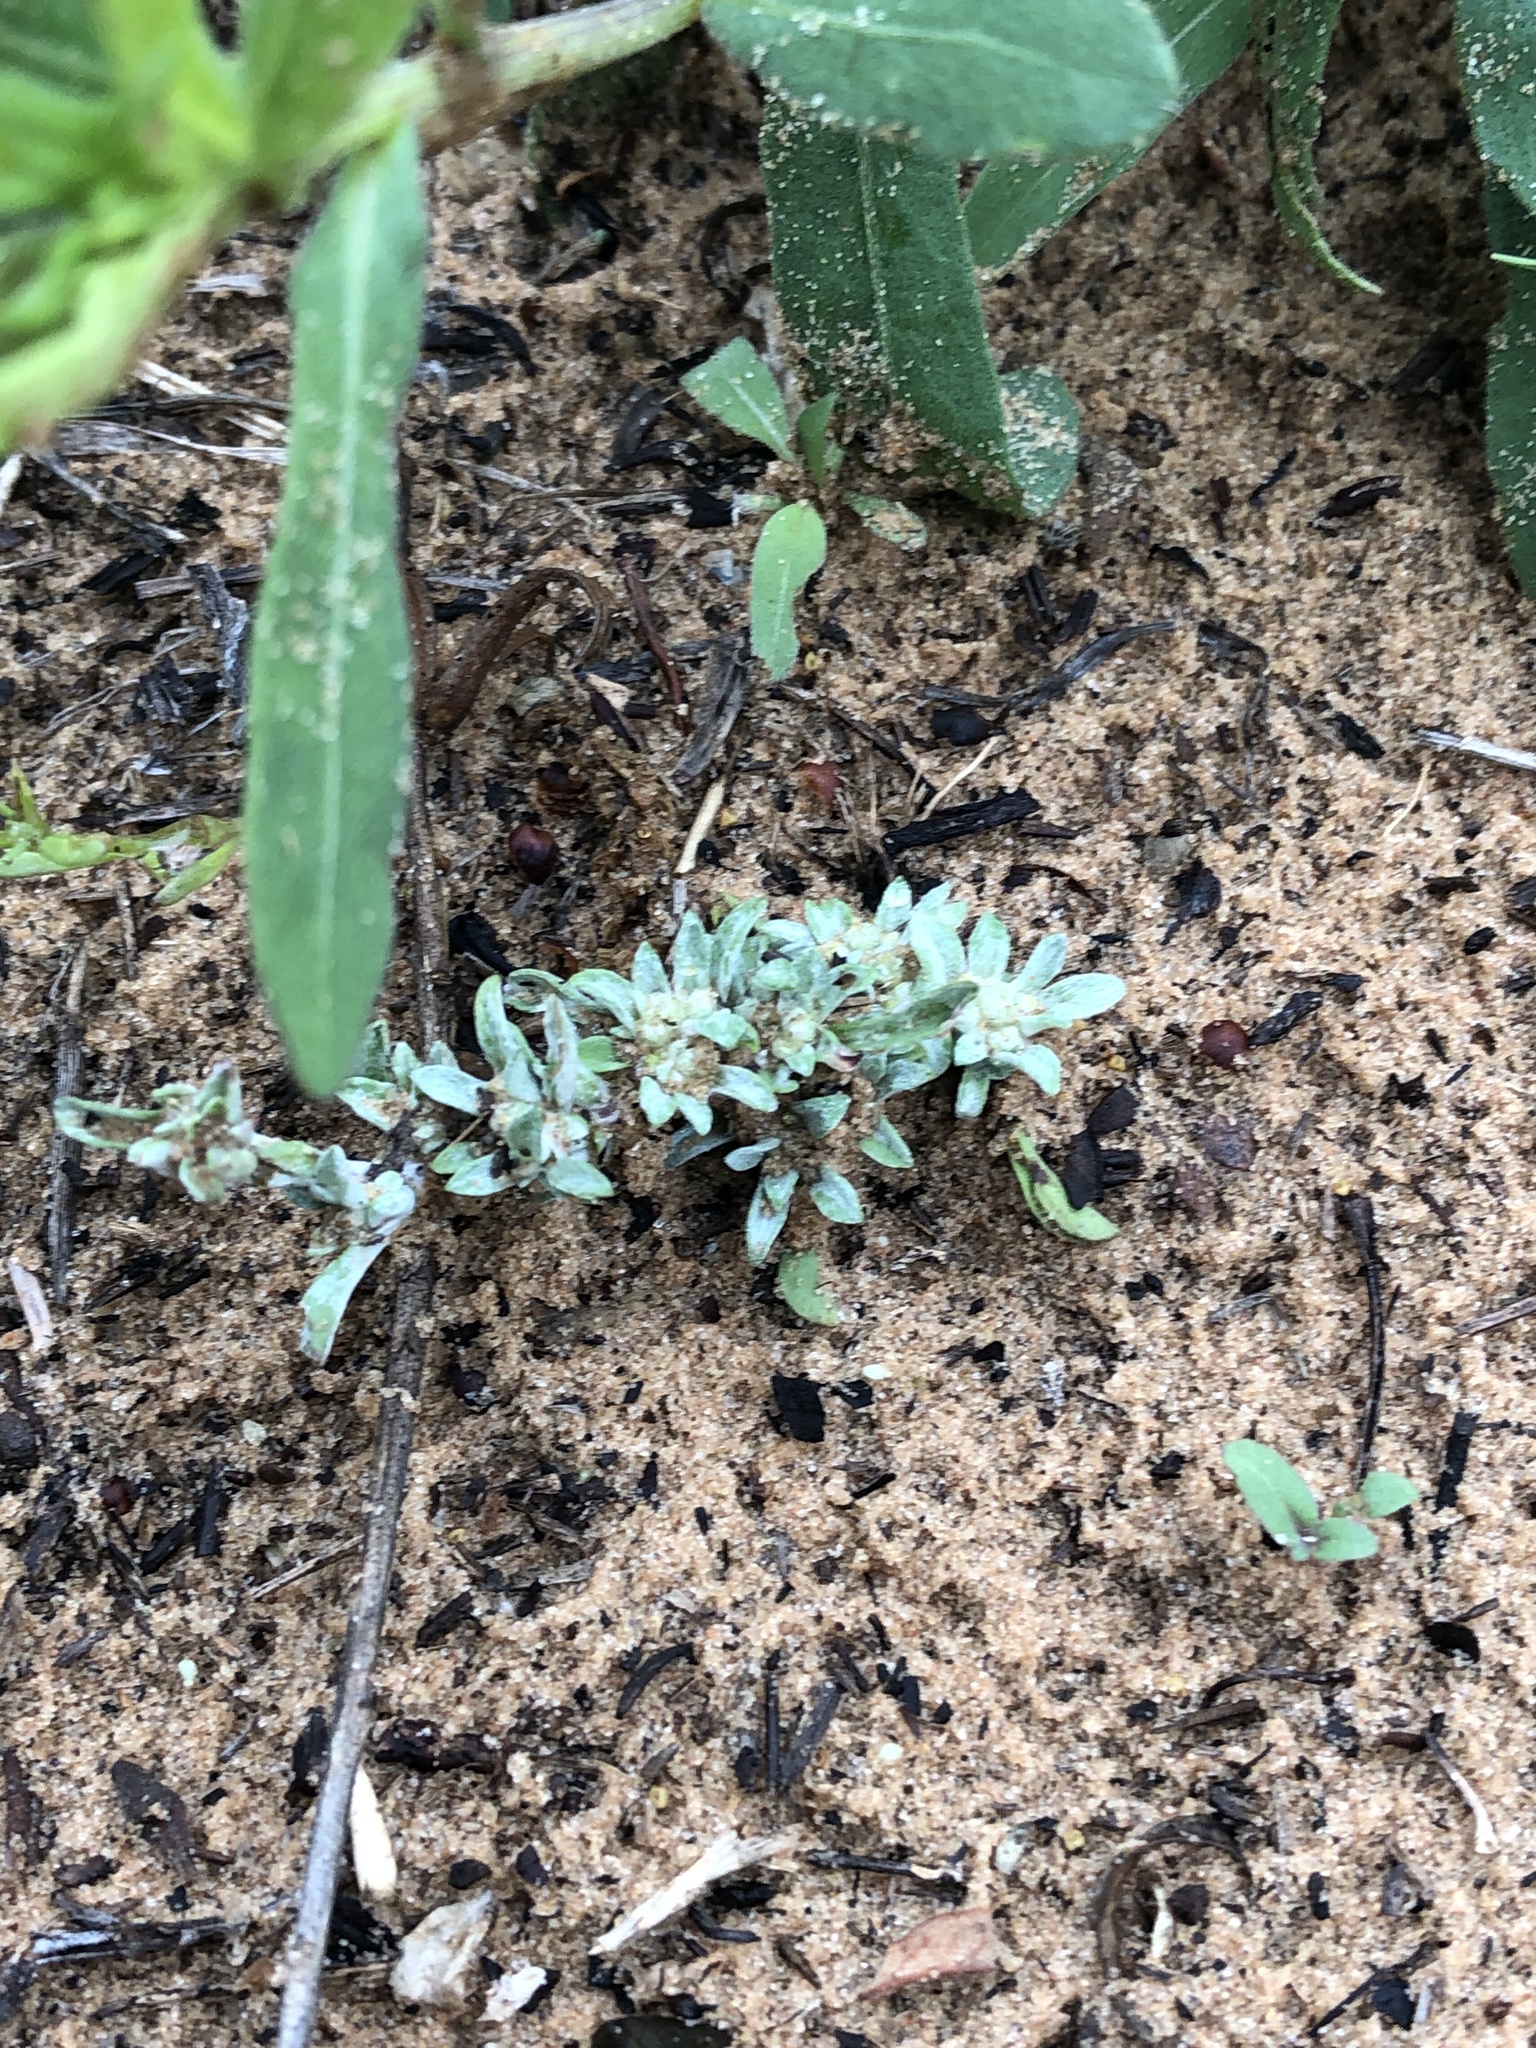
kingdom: Plantae
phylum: Tracheophyta
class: Magnoliopsida
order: Asterales
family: Asteraceae
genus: Diaperia
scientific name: Diaperia candida
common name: Silver rabbit-tobacco
